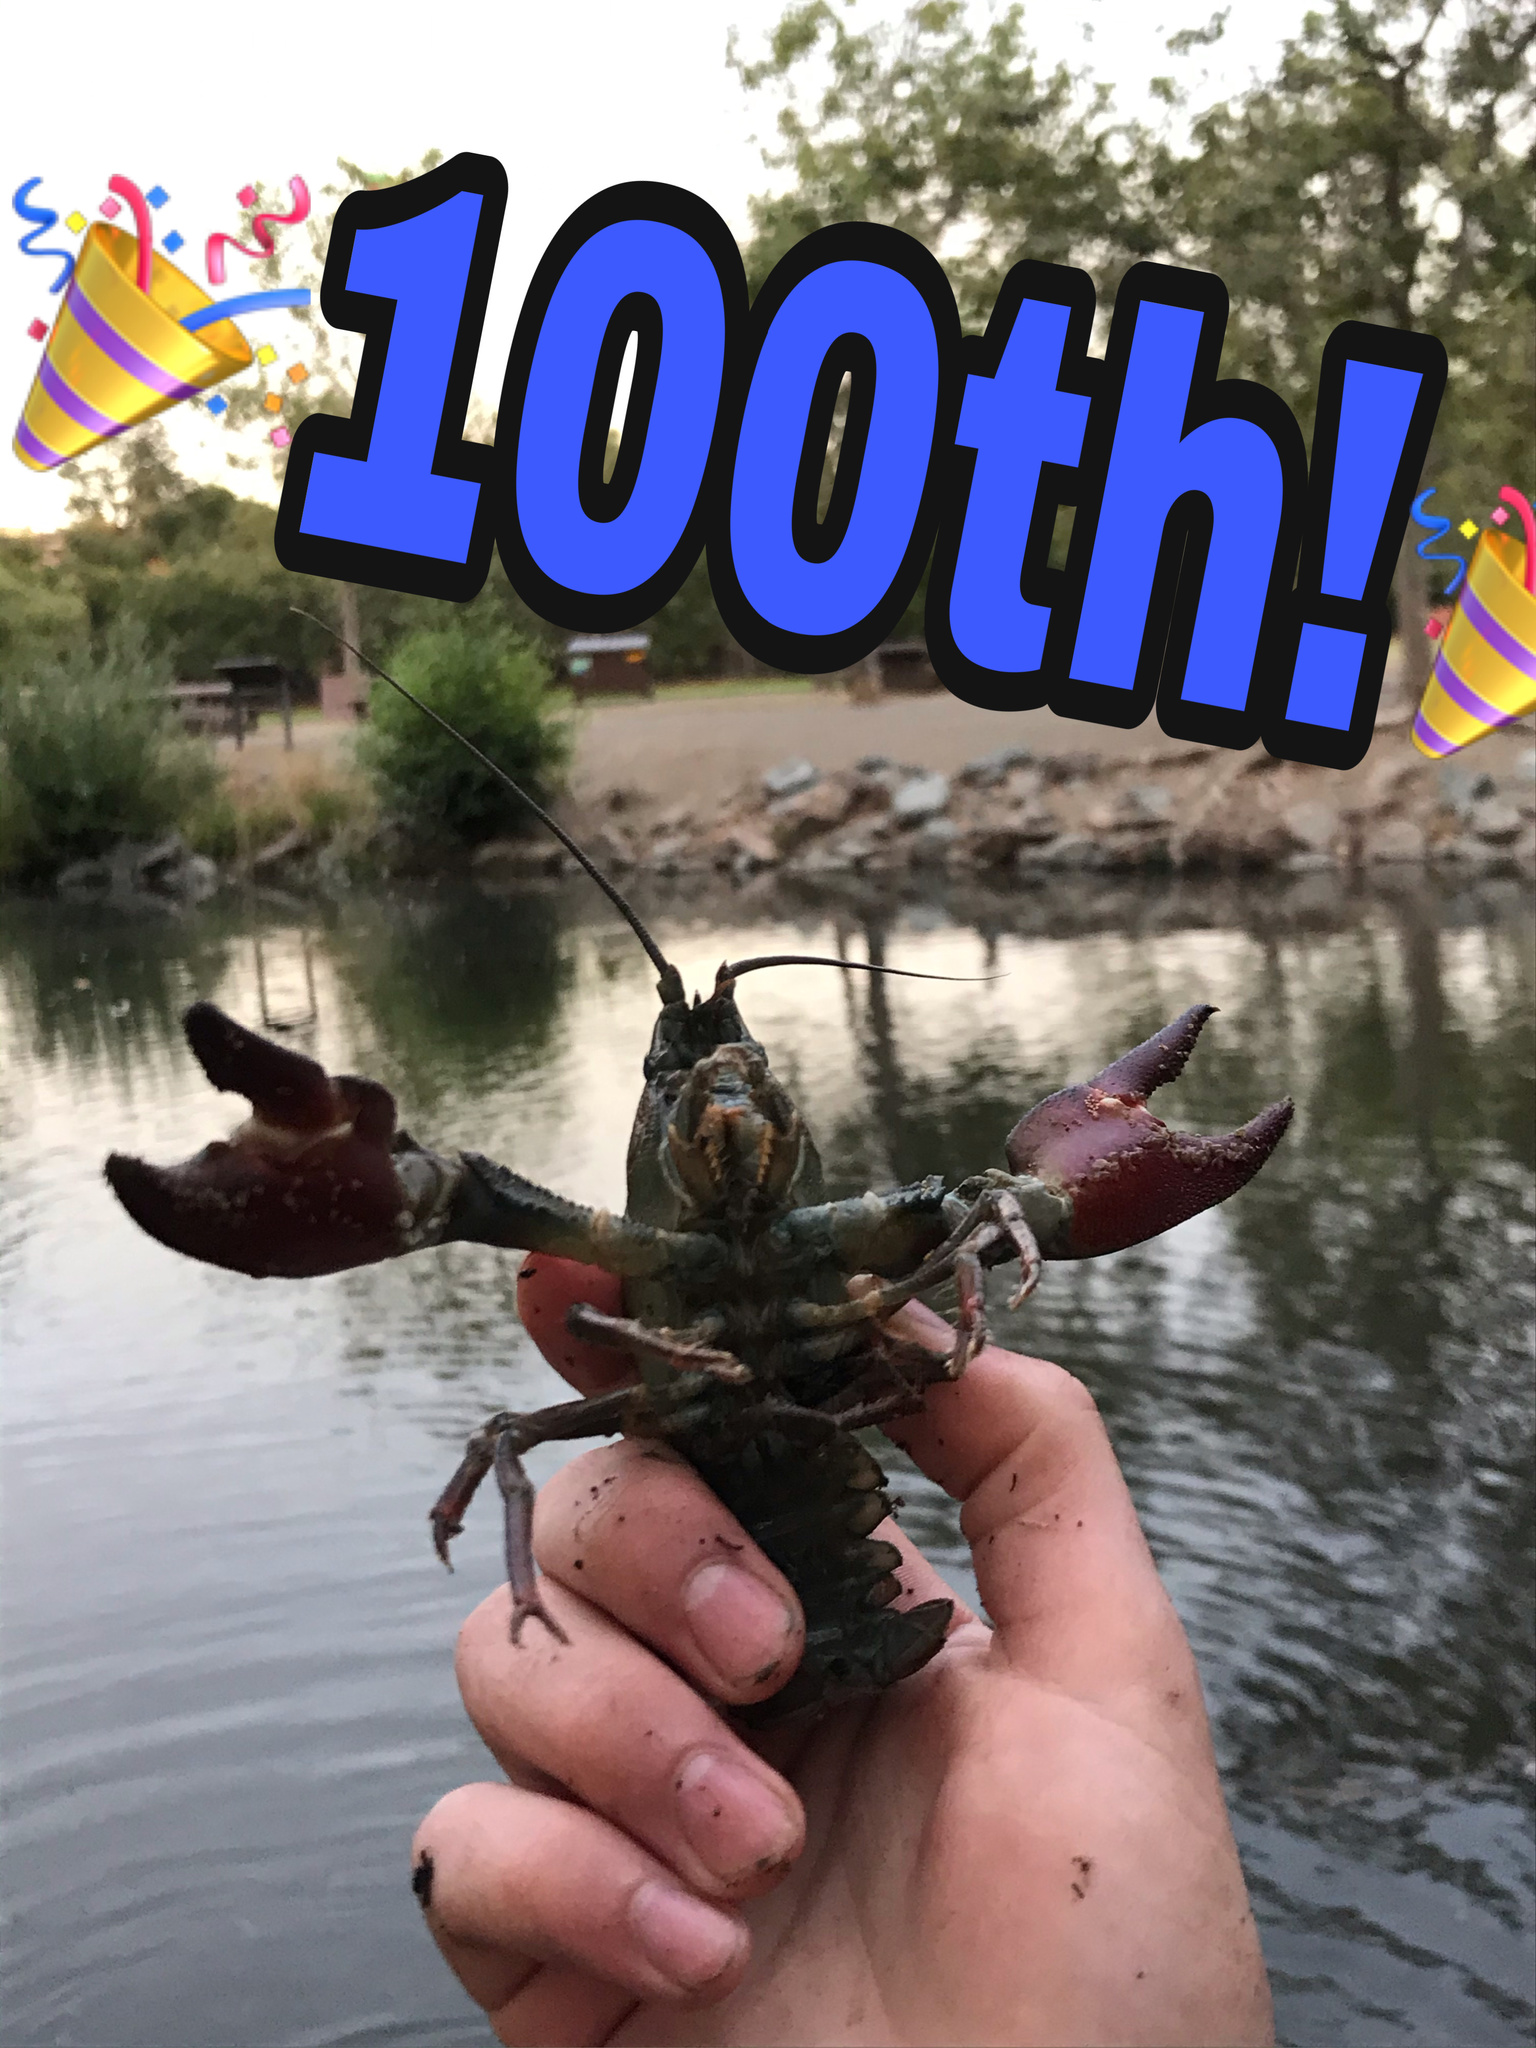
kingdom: Animalia
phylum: Arthropoda
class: Malacostraca
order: Decapoda
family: Astacidae
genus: Pacifastacus
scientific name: Pacifastacus leniusculus
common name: Signal crayfish
